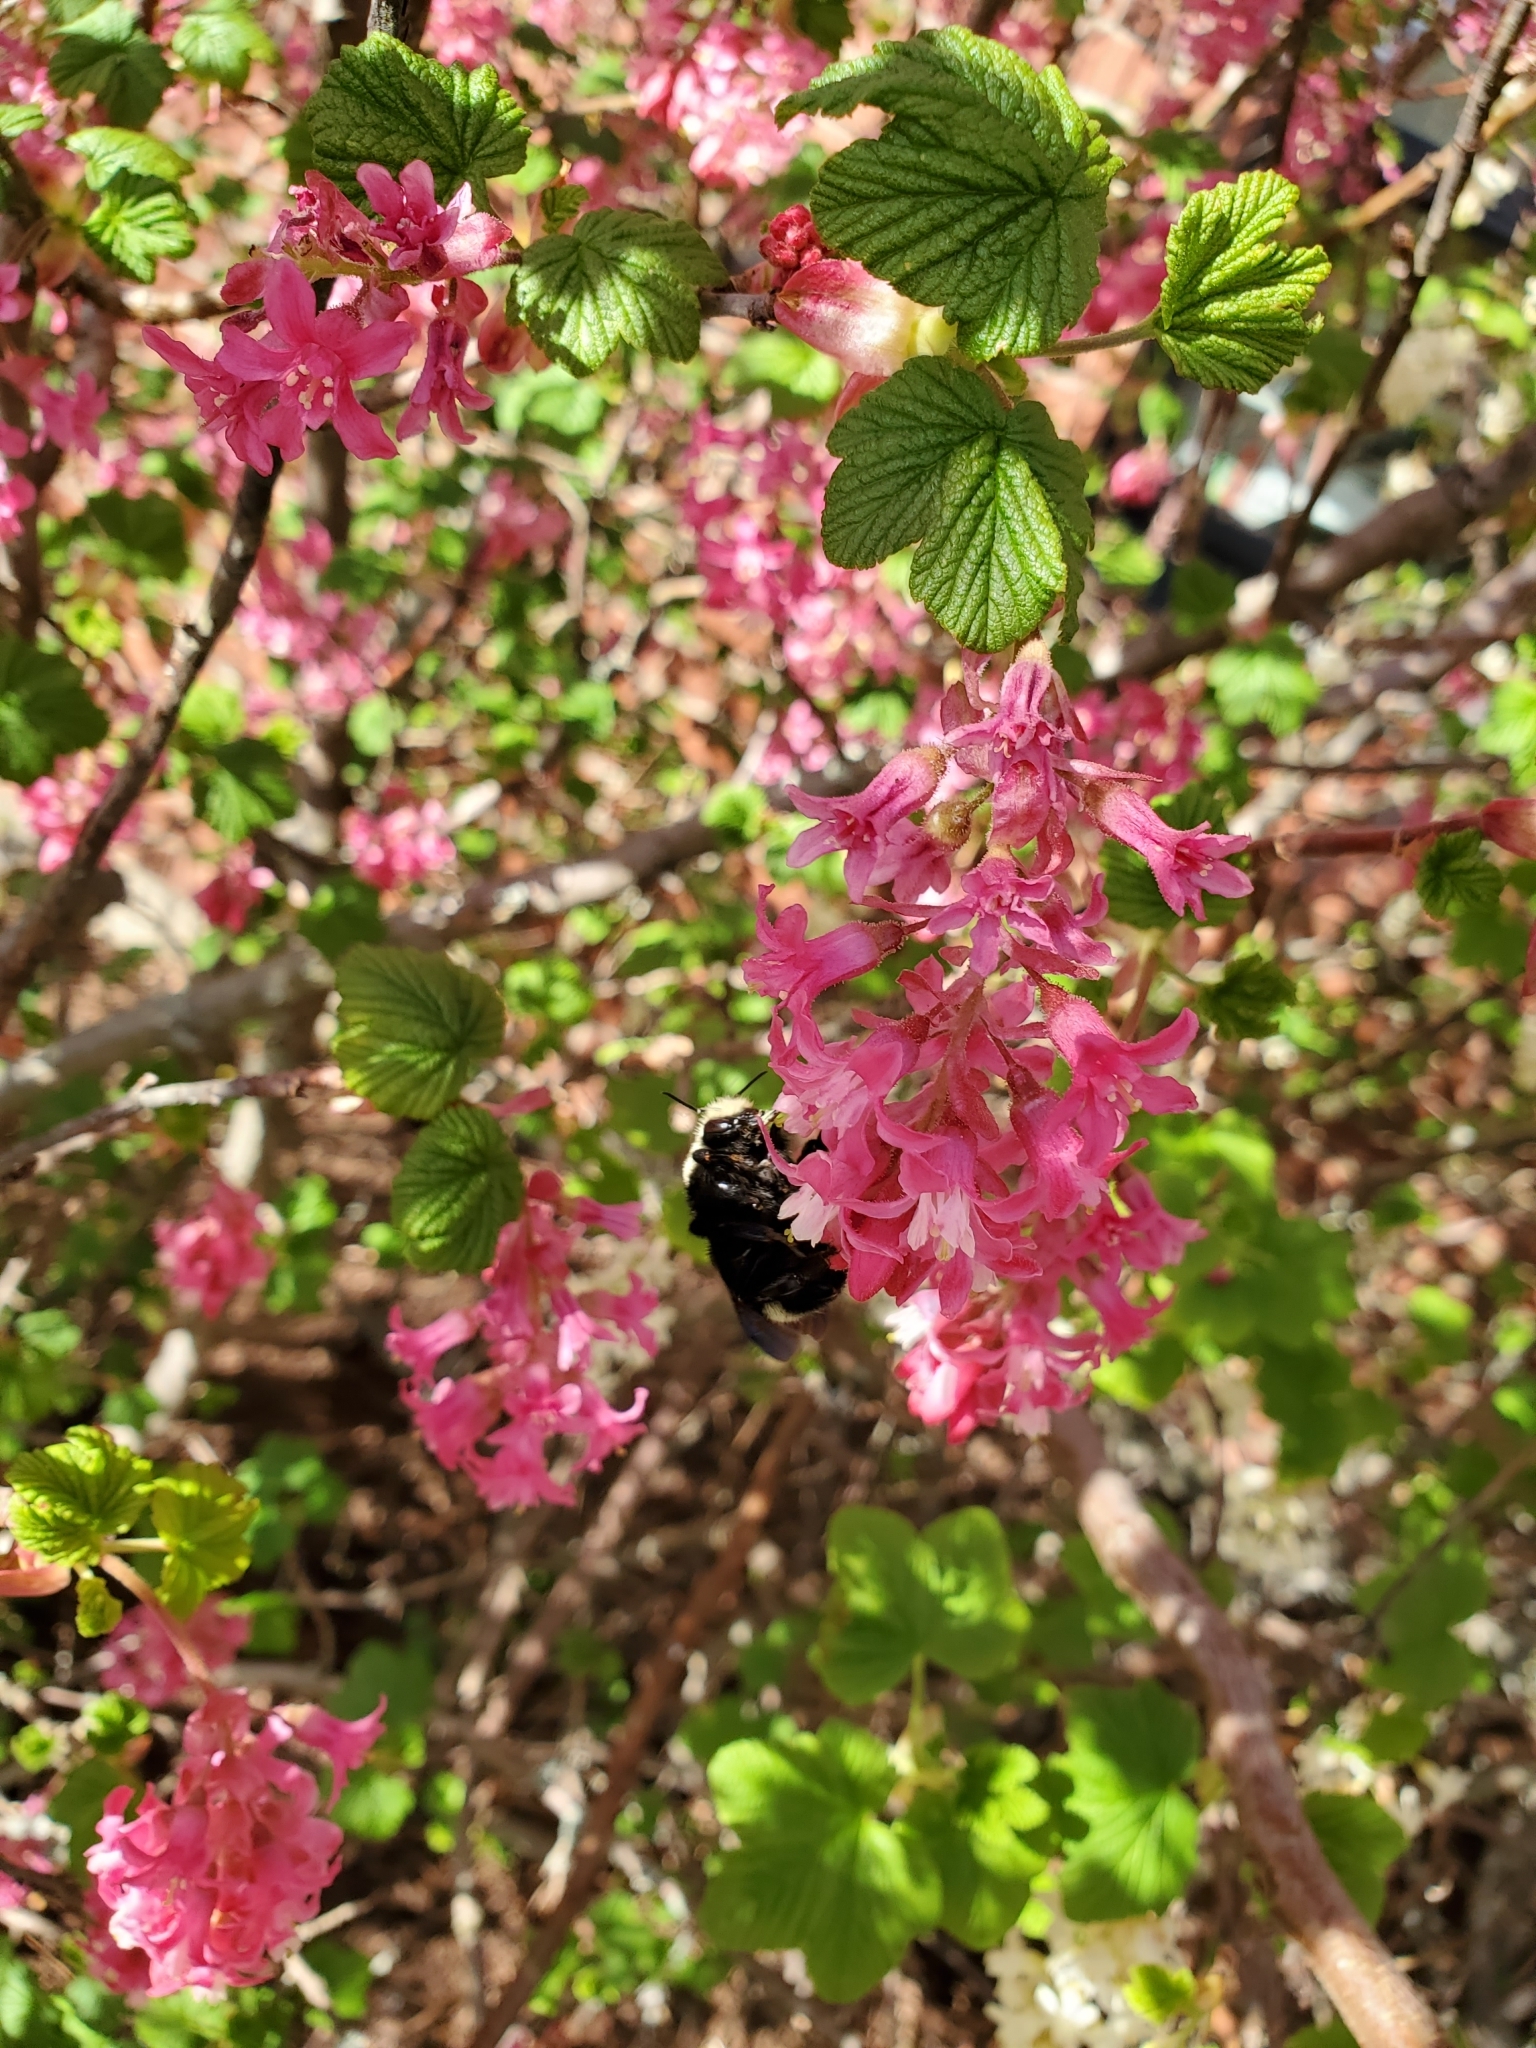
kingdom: Animalia
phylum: Arthropoda
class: Insecta
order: Hymenoptera
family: Apidae
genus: Bombus
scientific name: Bombus vosnesenskii
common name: Vosnesensky bumble bee
